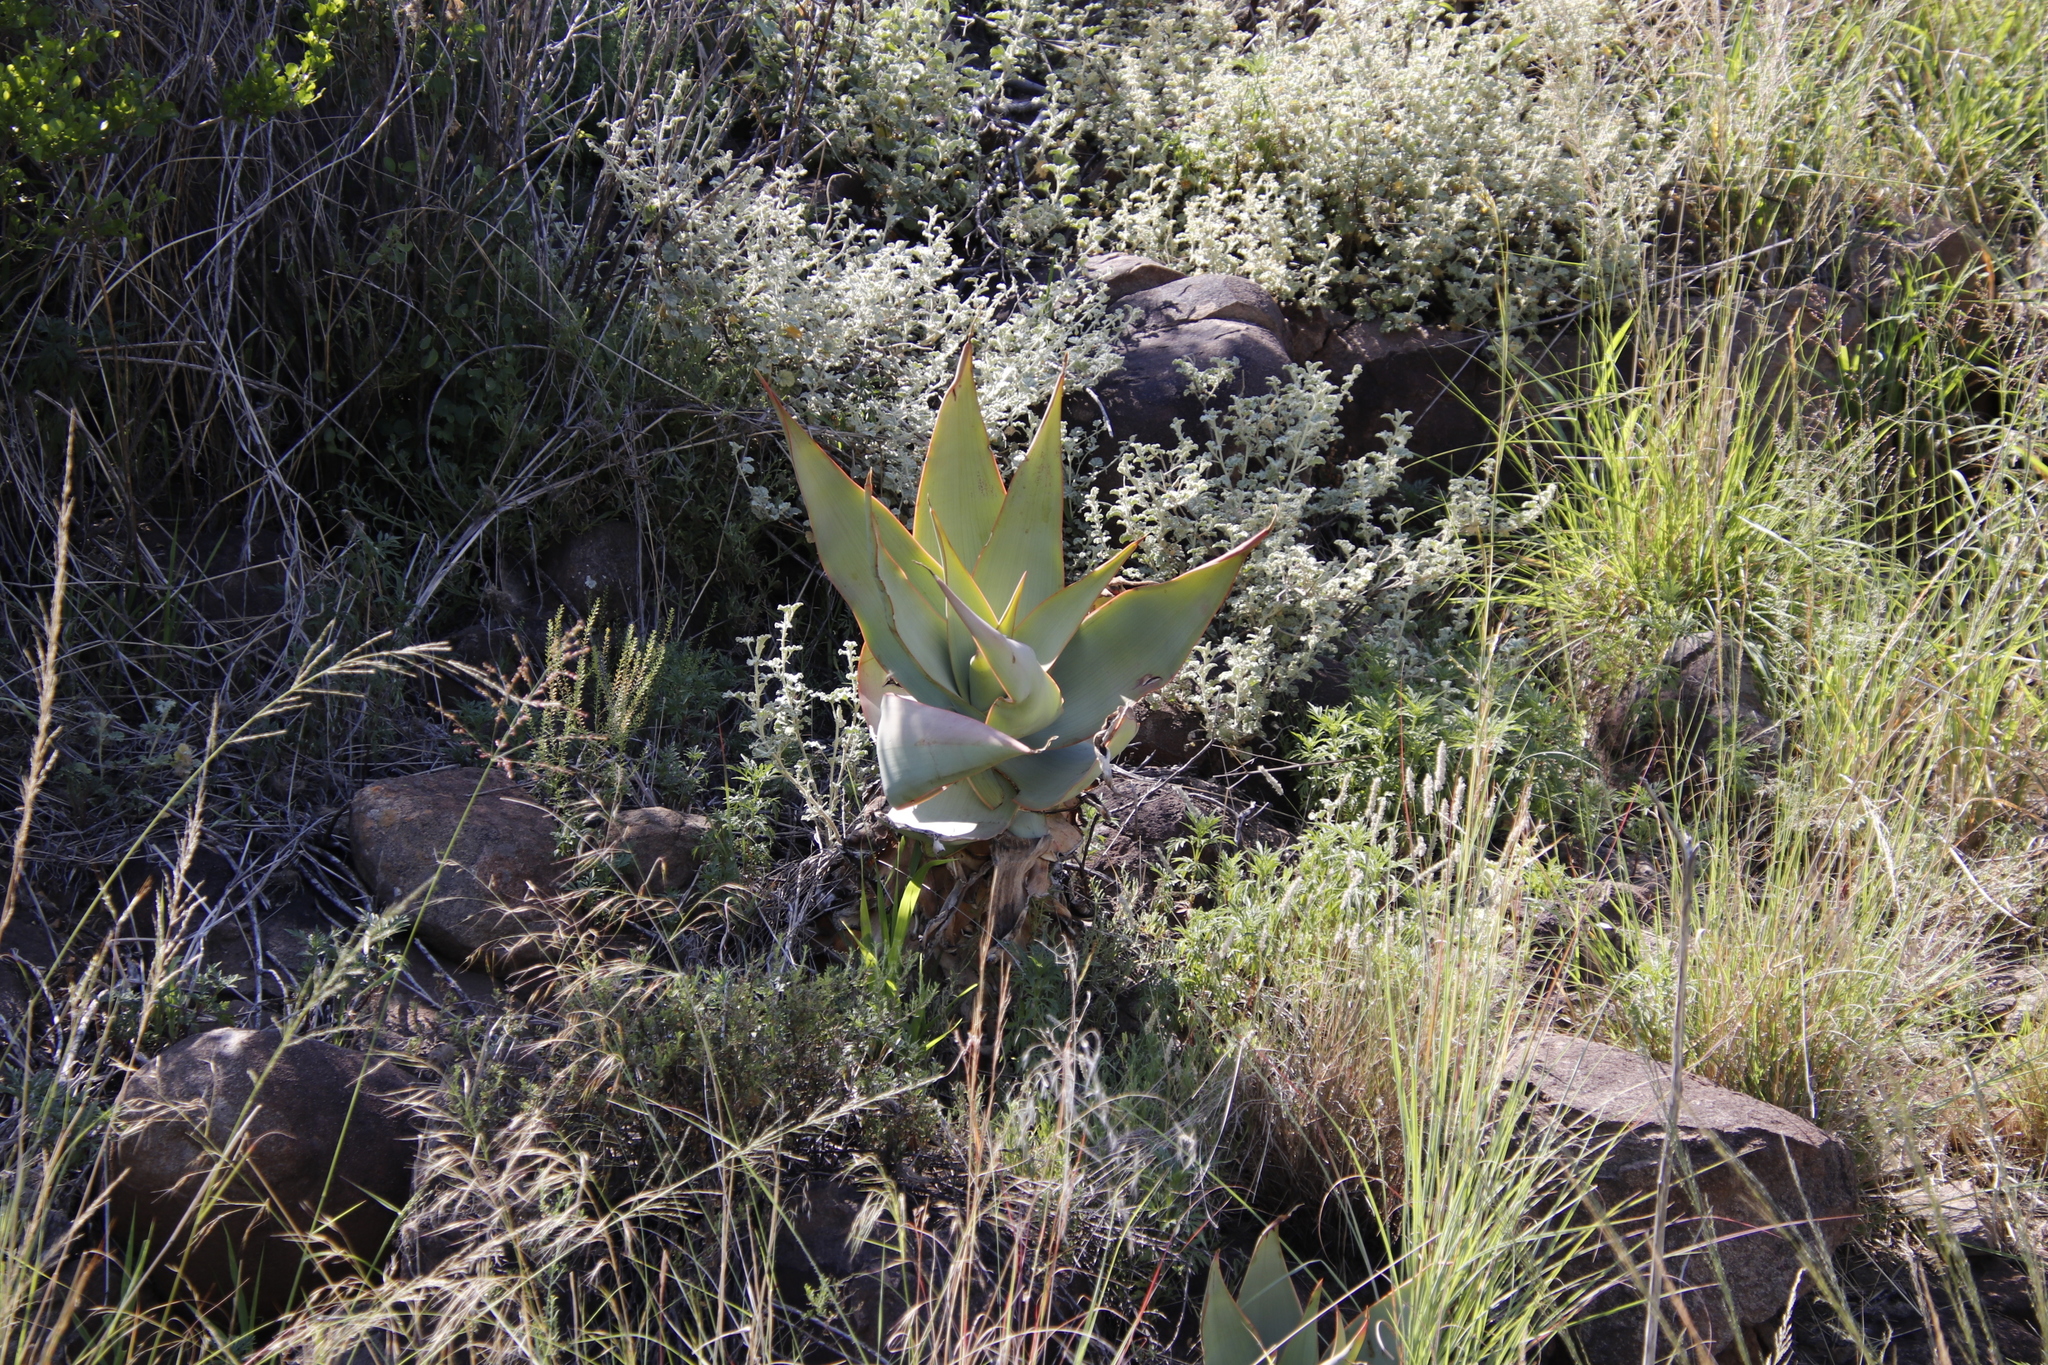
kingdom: Plantae
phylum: Tracheophyta
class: Liliopsida
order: Asparagales
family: Asphodelaceae
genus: Aloe
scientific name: Aloe striata
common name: Coral aloe
